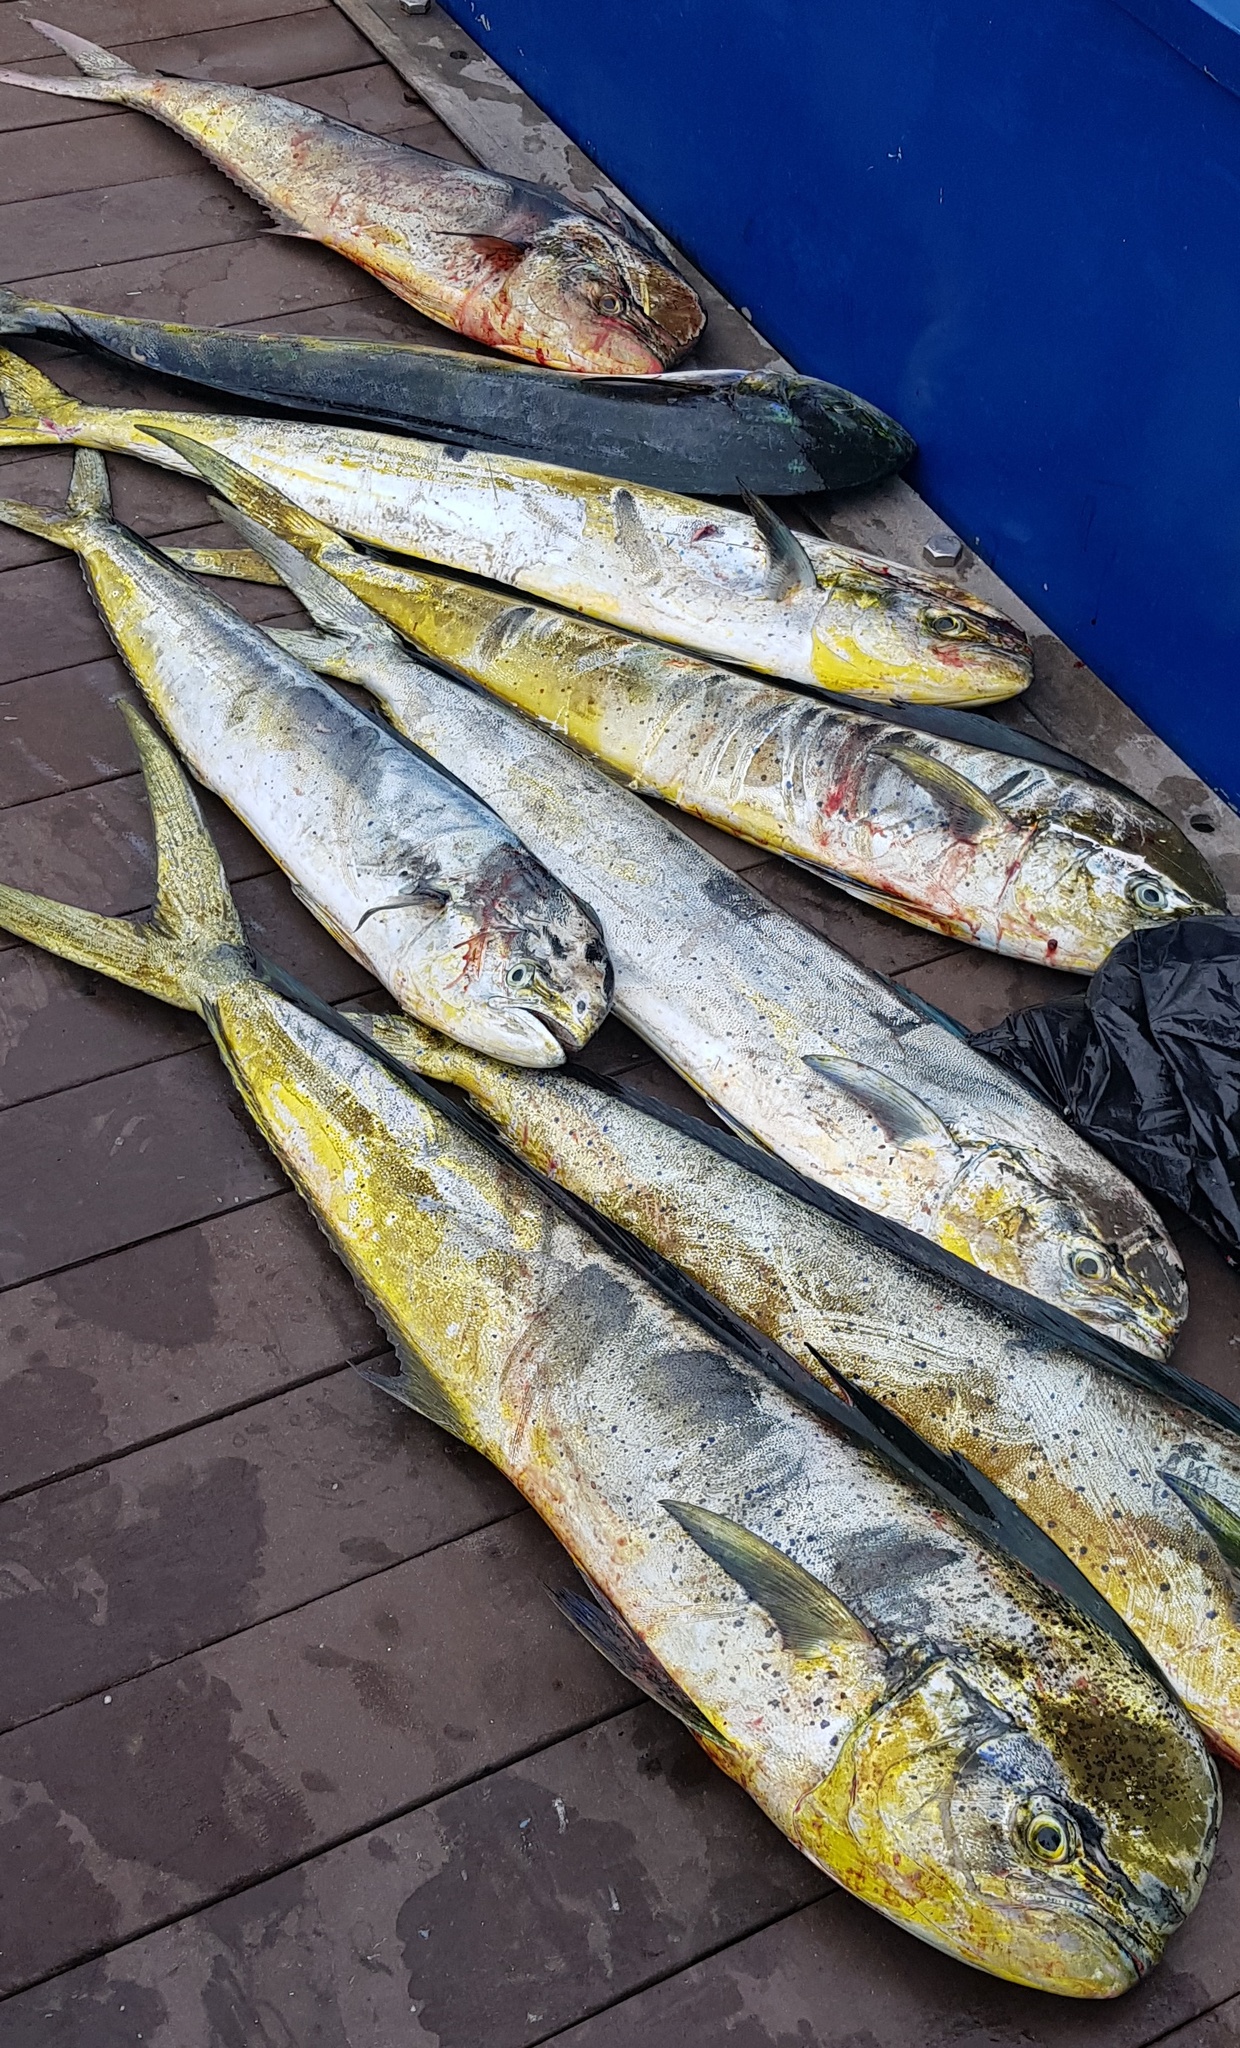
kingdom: Animalia
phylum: Chordata
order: Perciformes
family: Coryphaenidae
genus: Coryphaena
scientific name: Coryphaena hippurus
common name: Dolphin
